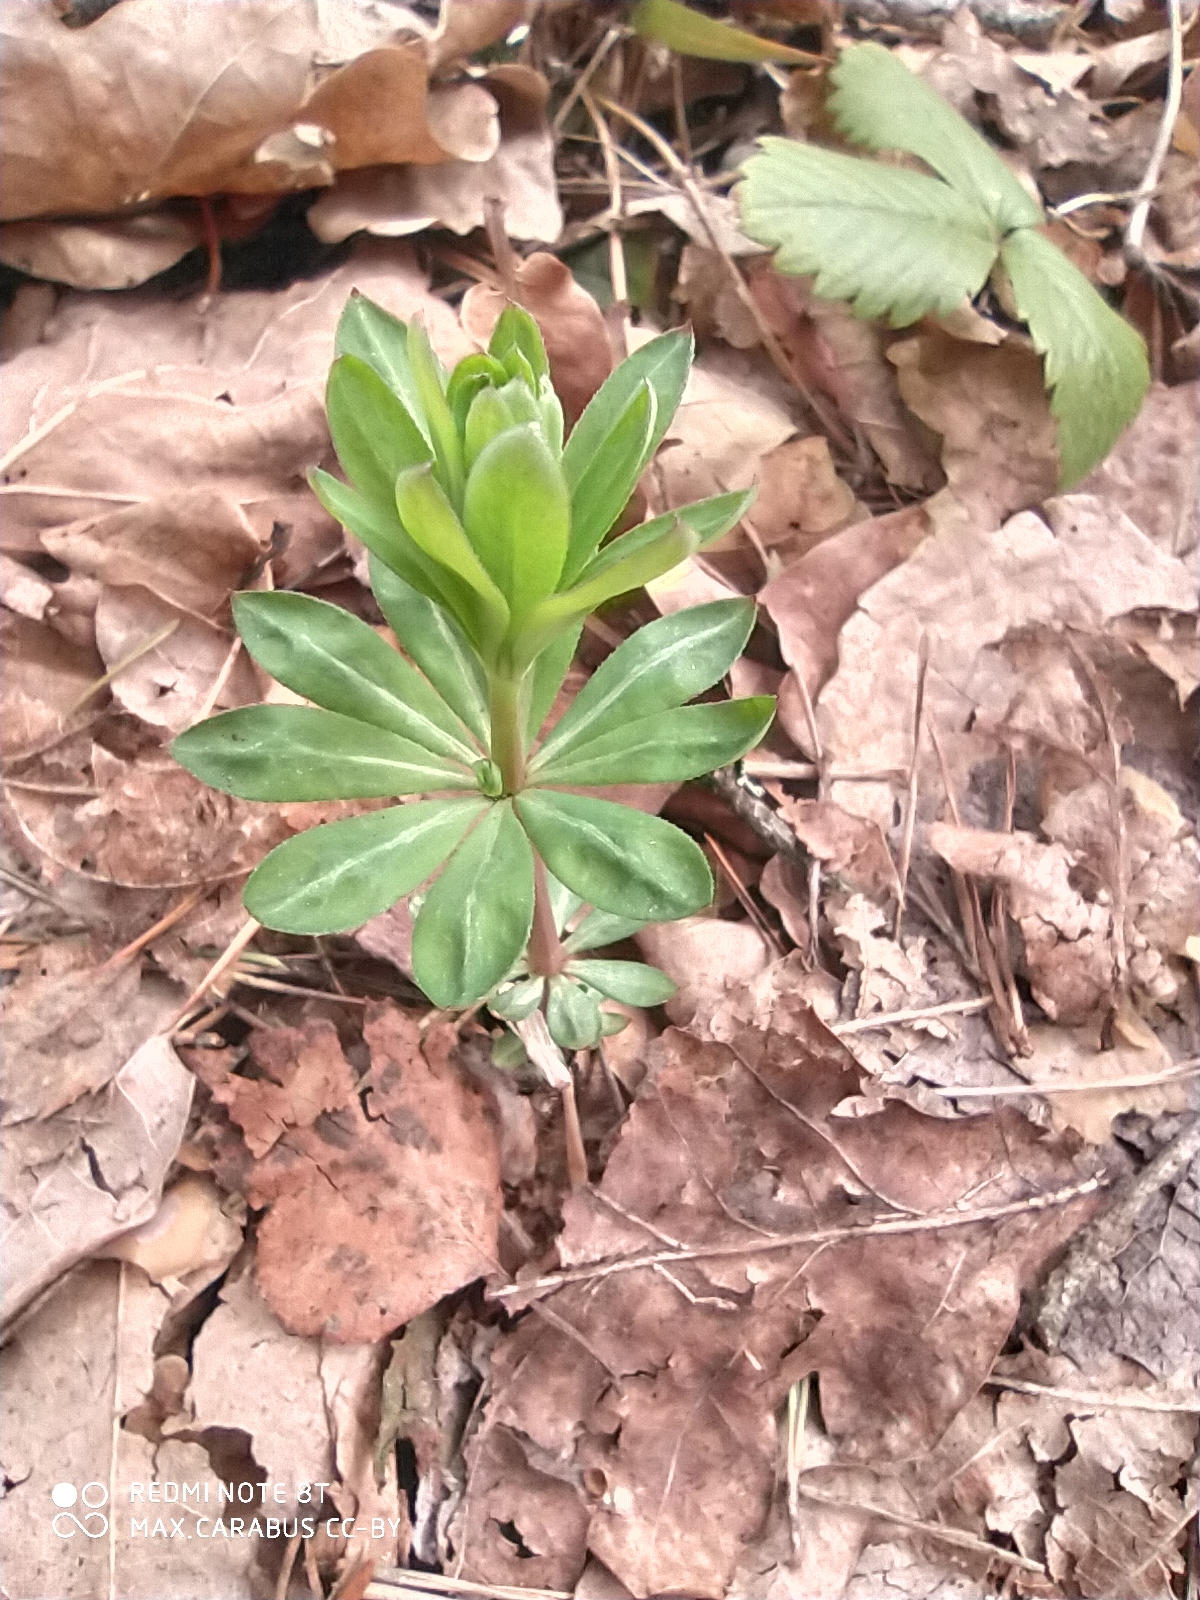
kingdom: Plantae
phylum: Tracheophyta
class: Magnoliopsida
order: Gentianales
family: Rubiaceae
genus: Galium
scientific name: Galium odoratum
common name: Sweet woodruff
